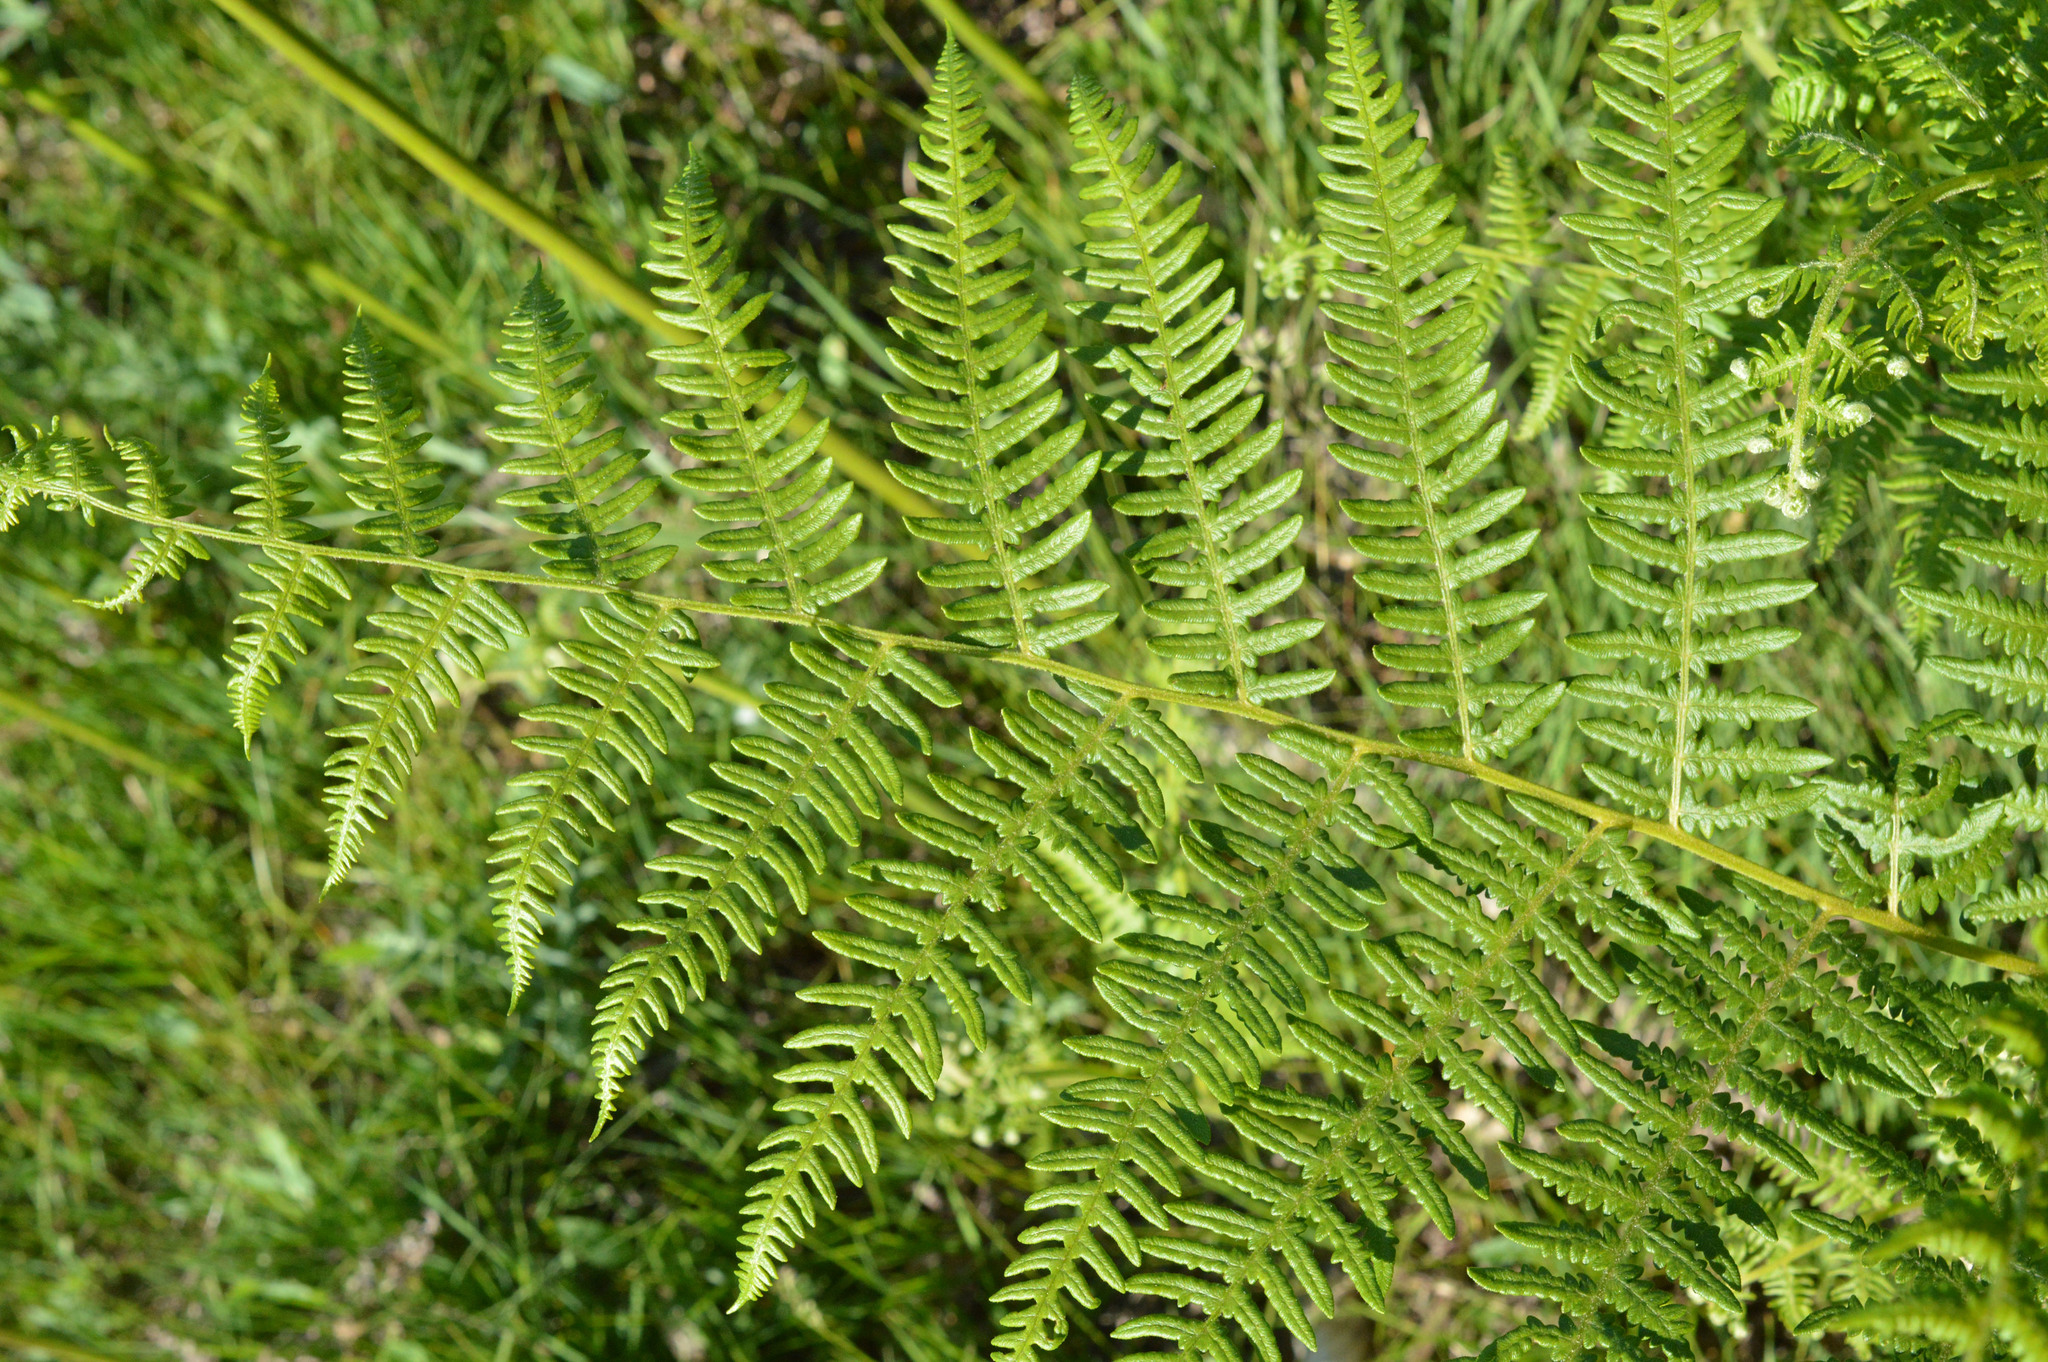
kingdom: Plantae
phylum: Tracheophyta
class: Polypodiopsida
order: Polypodiales
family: Dennstaedtiaceae
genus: Pteridium
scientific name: Pteridium aquilinum
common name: Bracken
